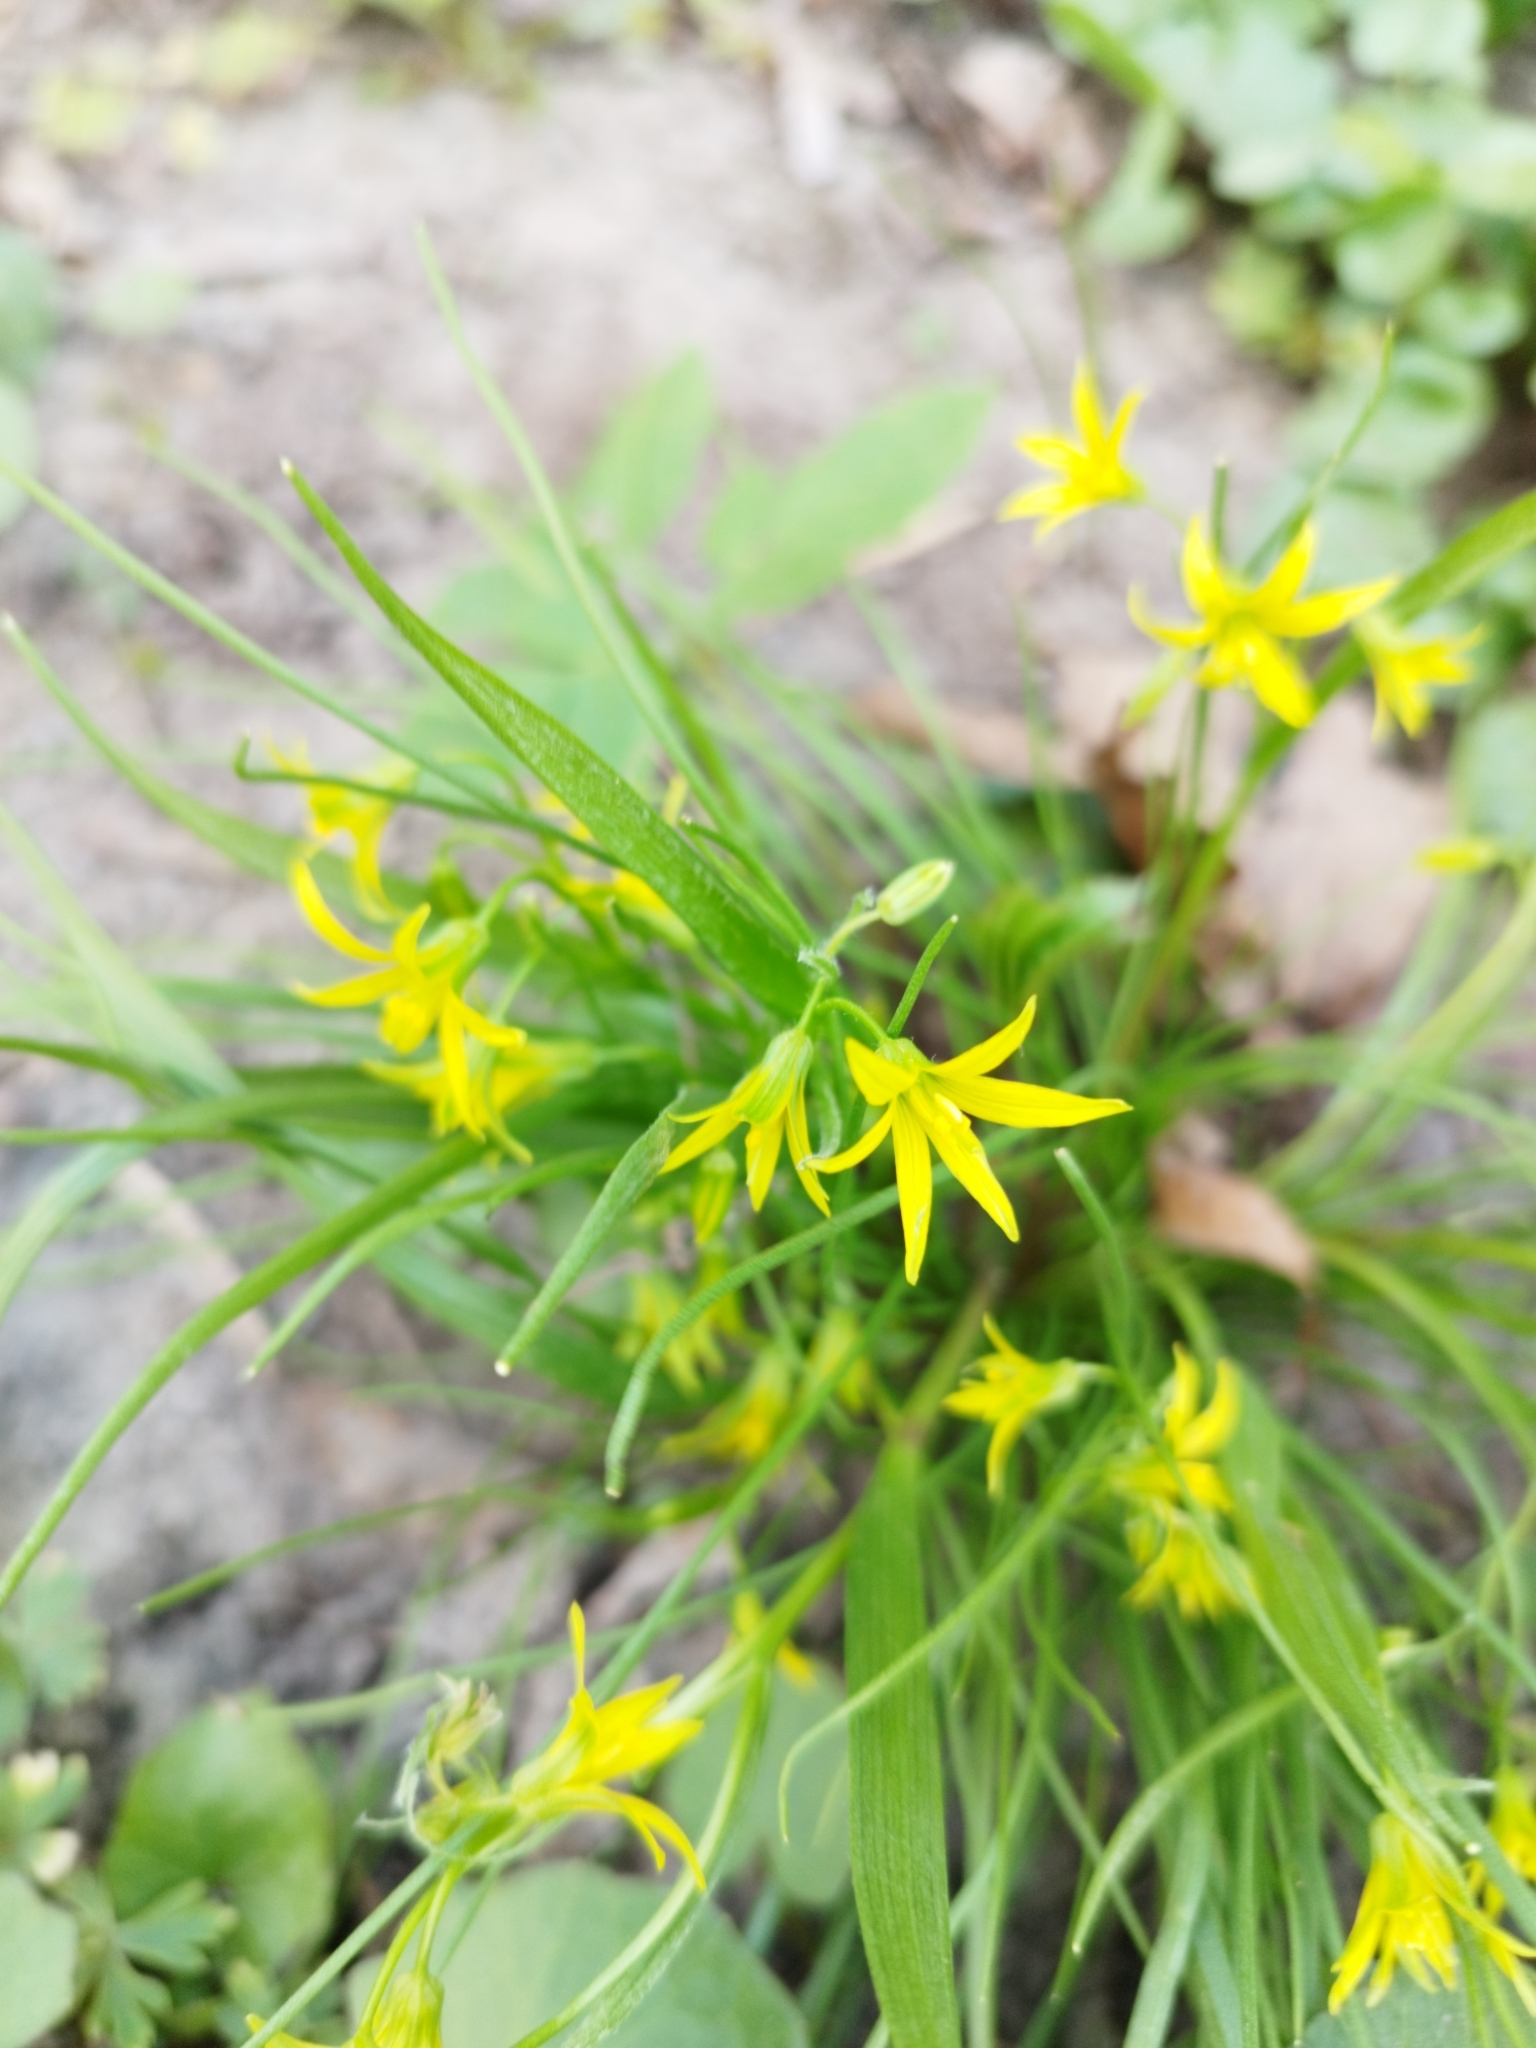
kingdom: Plantae
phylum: Tracheophyta
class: Liliopsida
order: Liliales
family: Liliaceae
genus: Gagea
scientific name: Gagea minima
